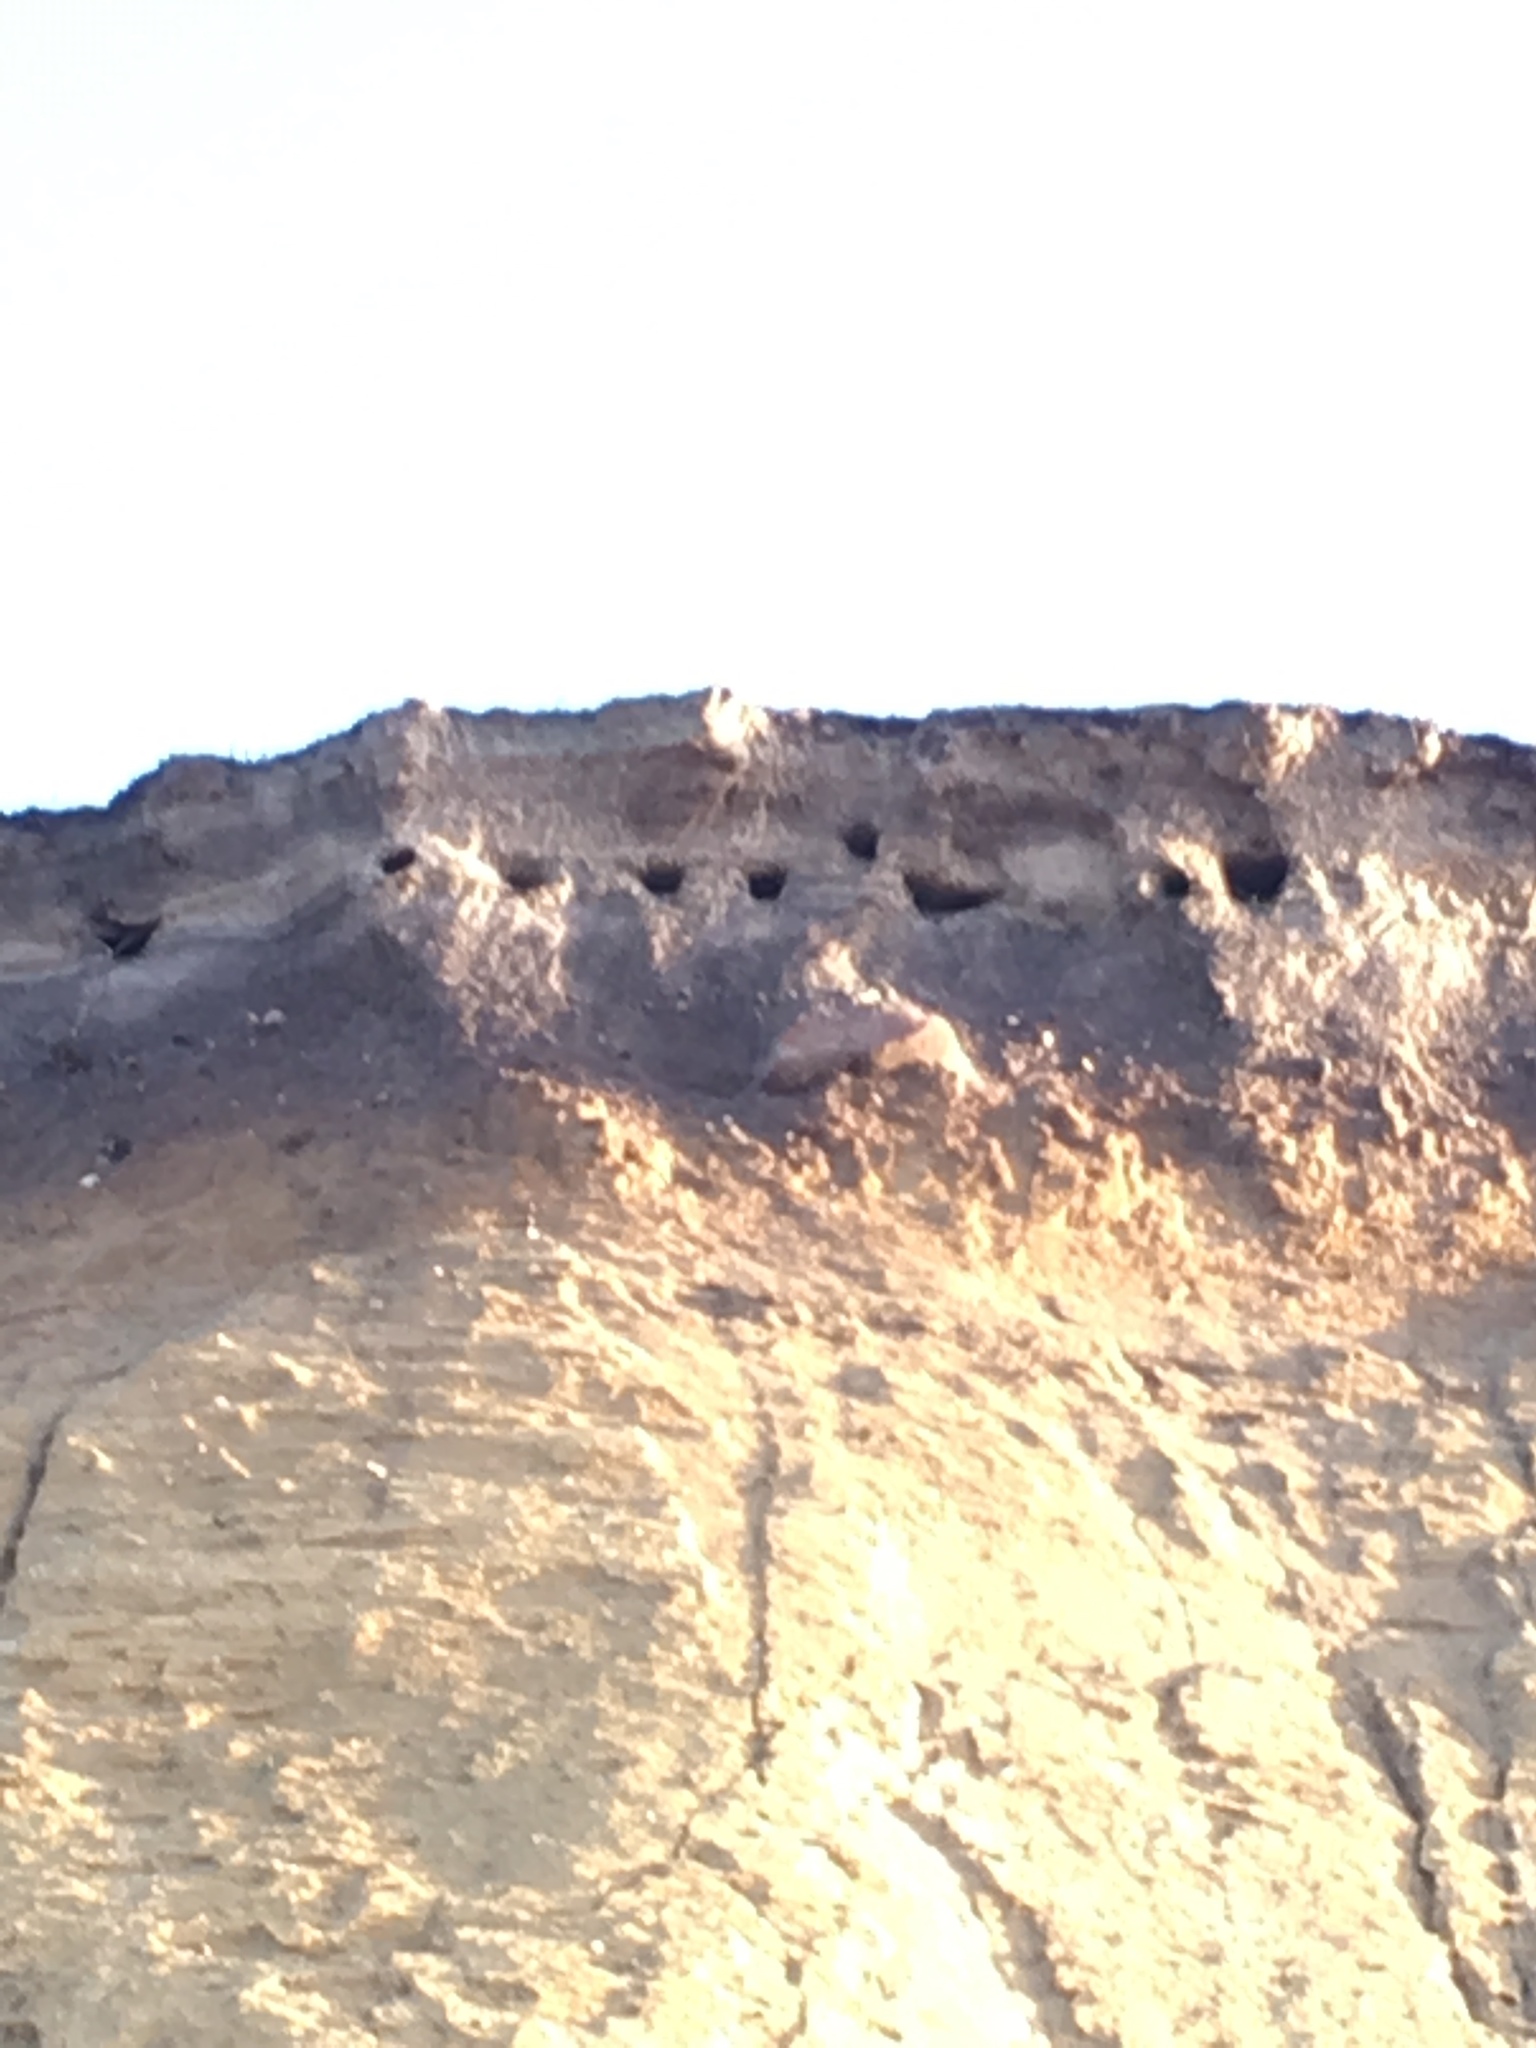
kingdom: Animalia
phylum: Chordata
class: Aves
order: Passeriformes
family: Hirundinidae
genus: Riparia
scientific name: Riparia riparia
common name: Sand martin
